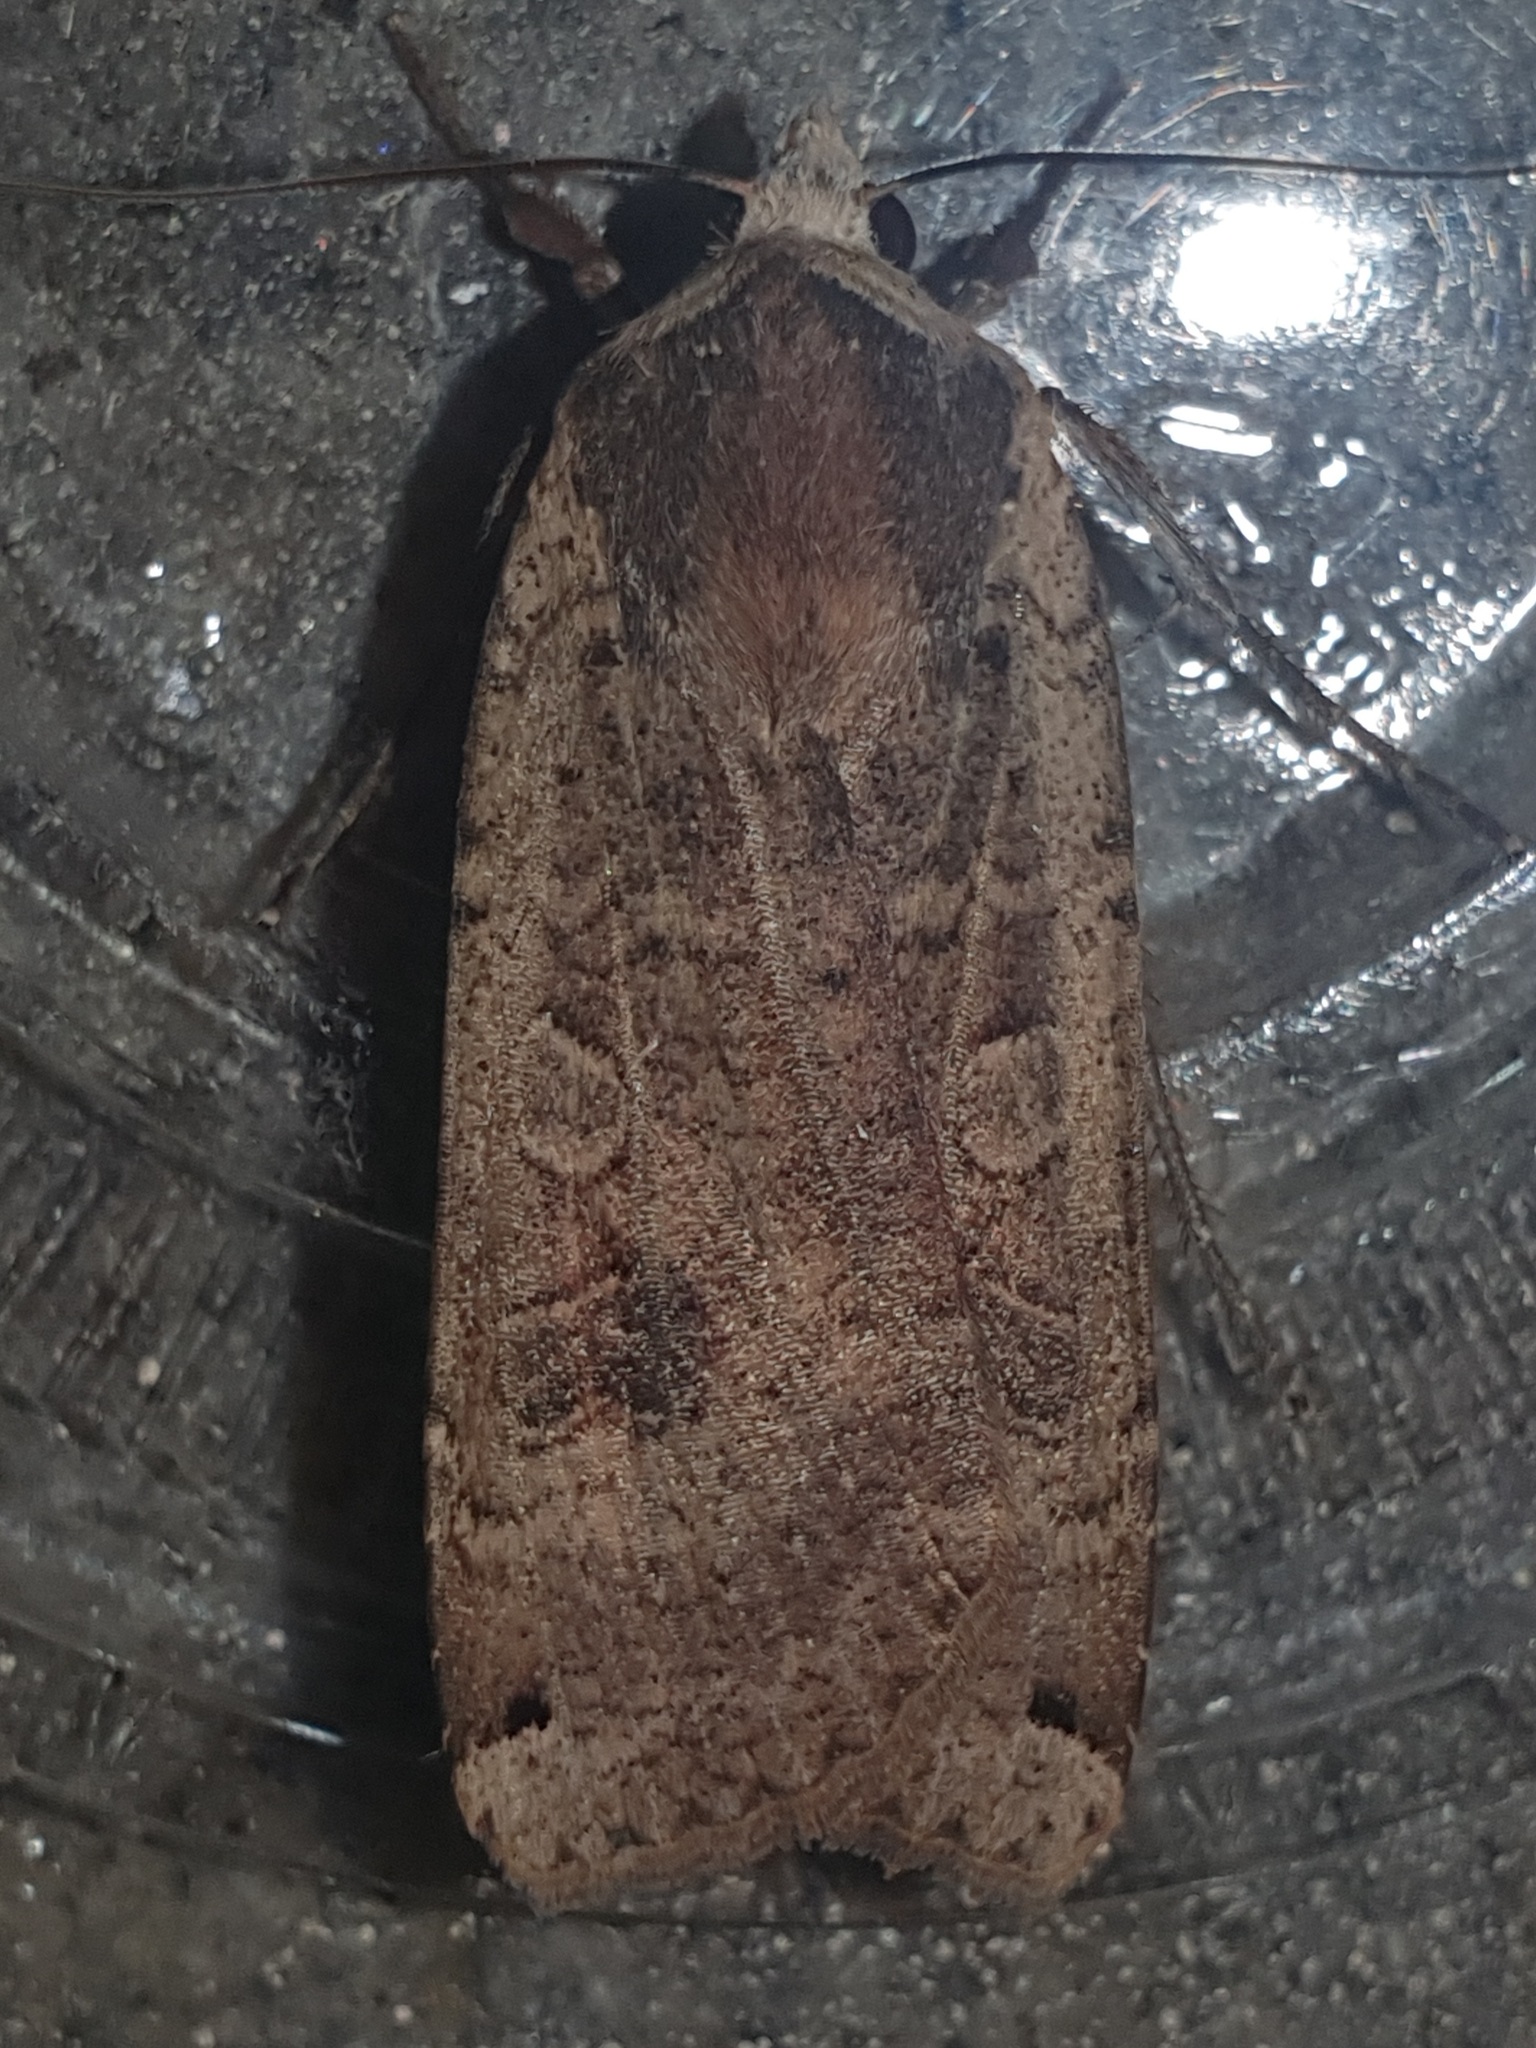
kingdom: Animalia
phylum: Arthropoda
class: Insecta
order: Lepidoptera
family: Noctuidae
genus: Noctua
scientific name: Noctua pronuba
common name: Large yellow underwing
